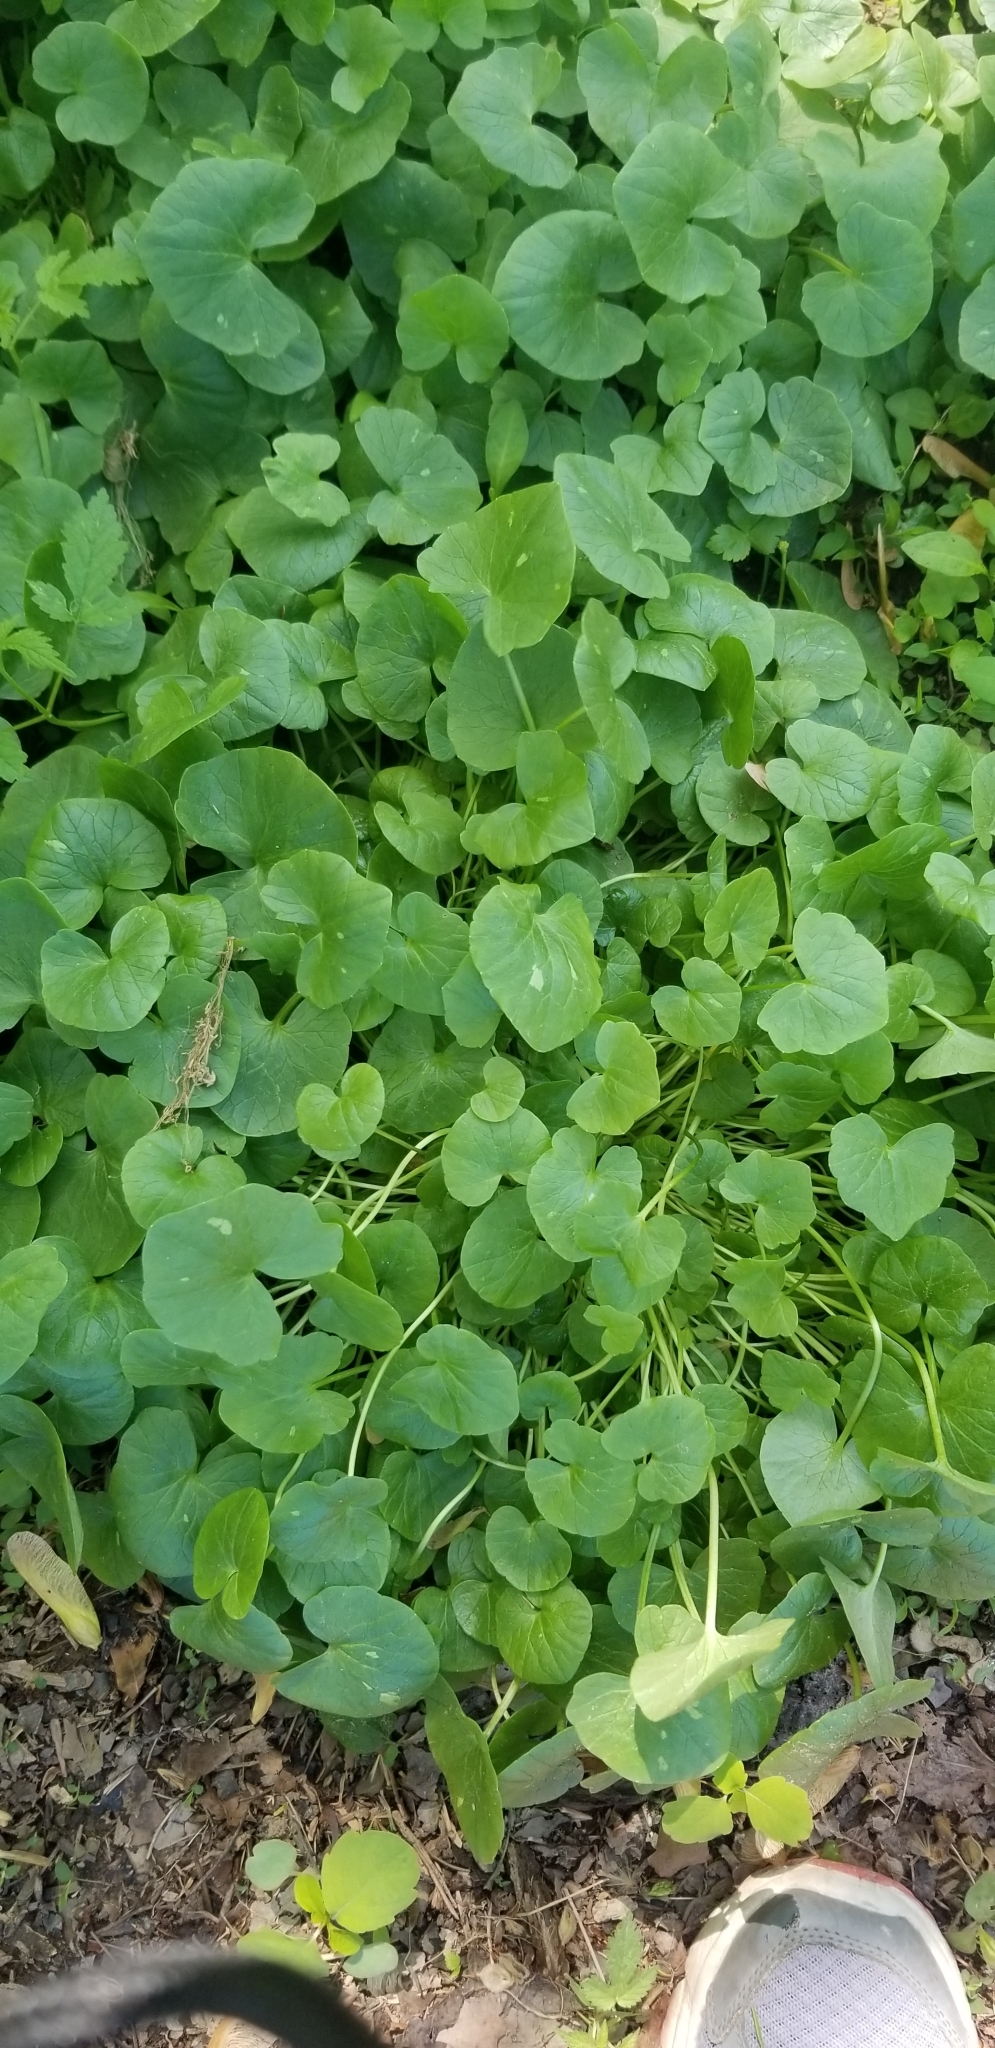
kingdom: Plantae
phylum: Tracheophyta
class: Magnoliopsida
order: Ranunculales
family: Ranunculaceae
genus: Ficaria
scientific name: Ficaria verna
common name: Lesser celandine
